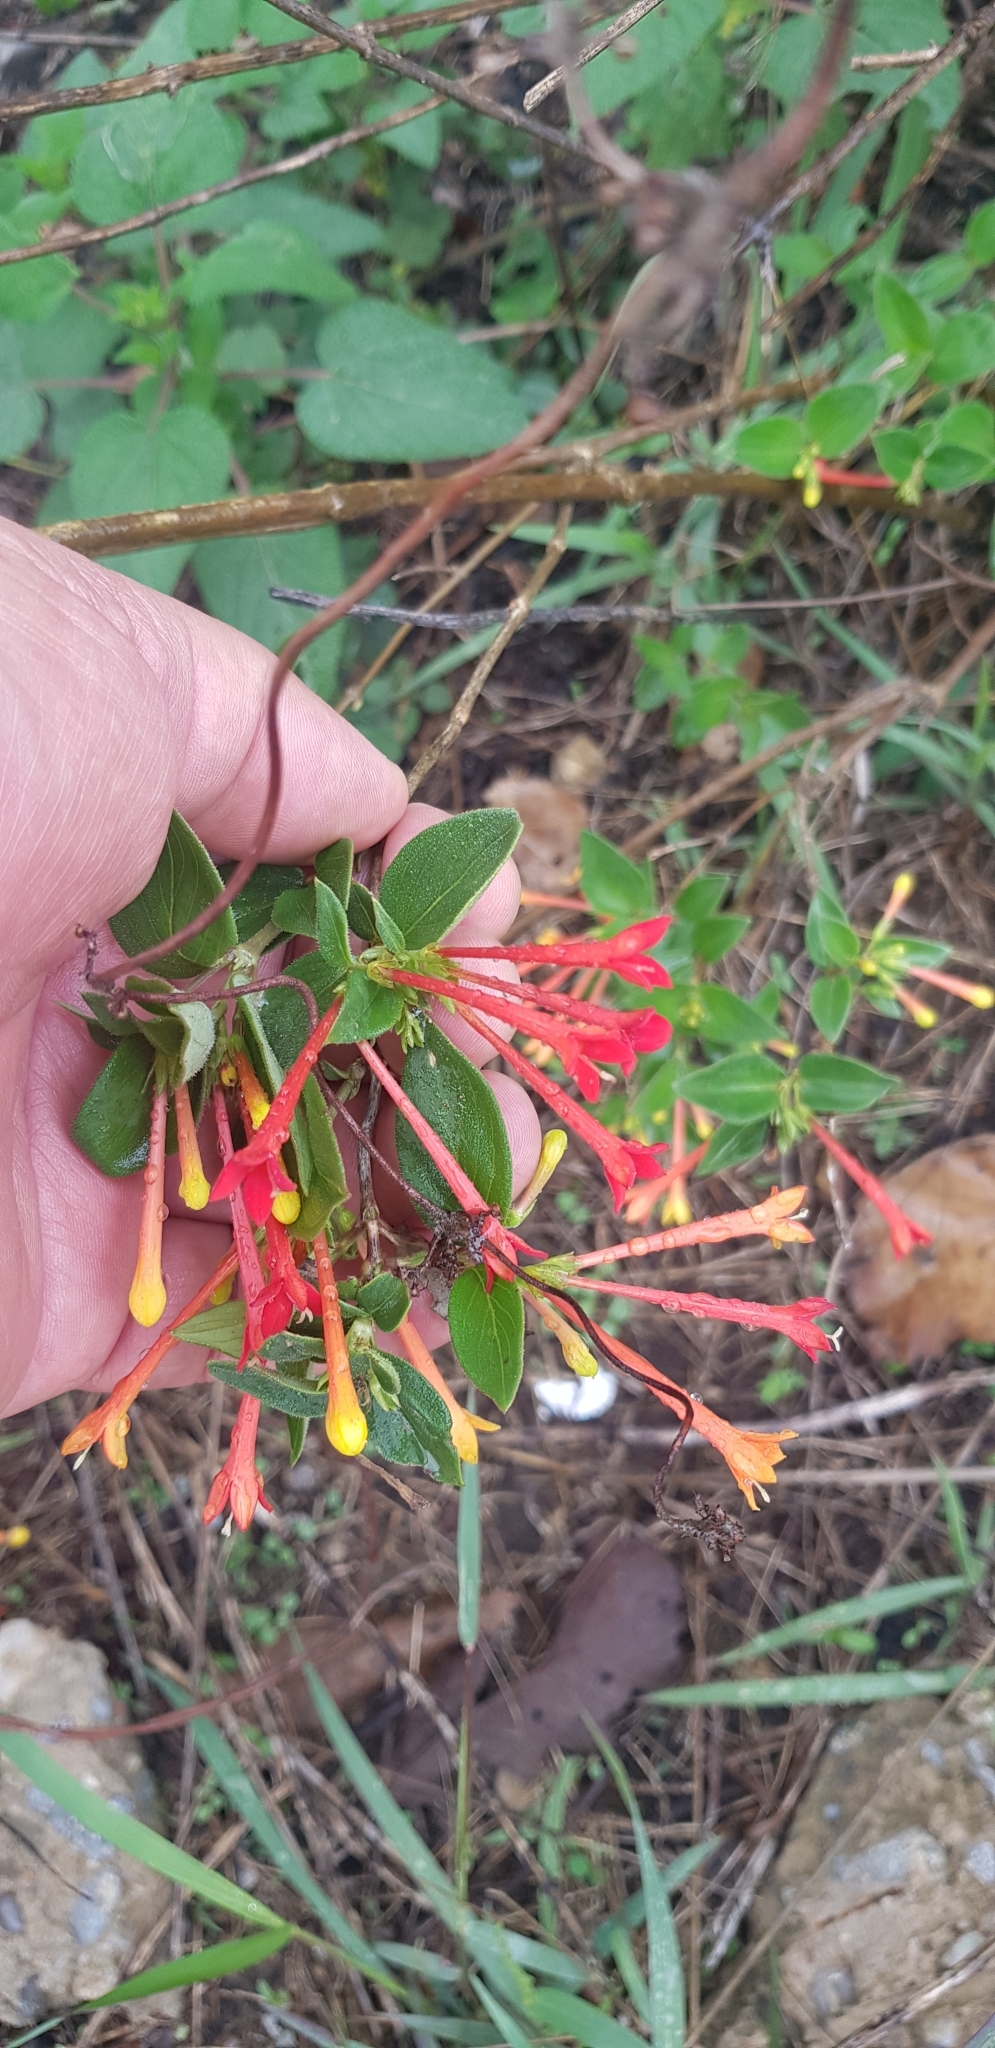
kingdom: Plantae
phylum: Tracheophyta
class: Magnoliopsida
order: Gentianales
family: Rubiaceae
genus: Bouvardia
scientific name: Bouvardia ternifolia
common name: Scarlet bouvardia
